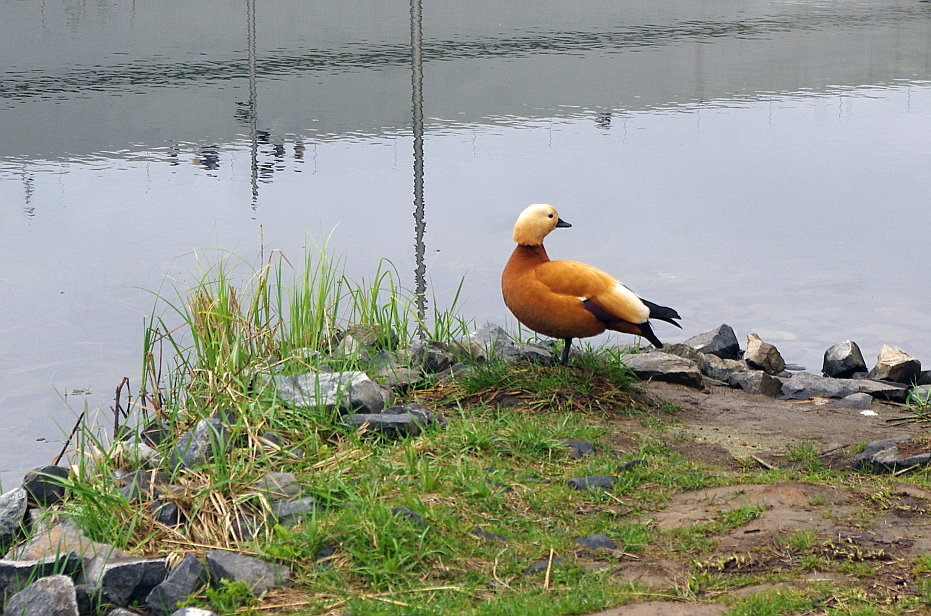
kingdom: Animalia
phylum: Chordata
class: Aves
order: Anseriformes
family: Anatidae
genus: Tadorna
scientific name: Tadorna ferruginea
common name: Ruddy shelduck
